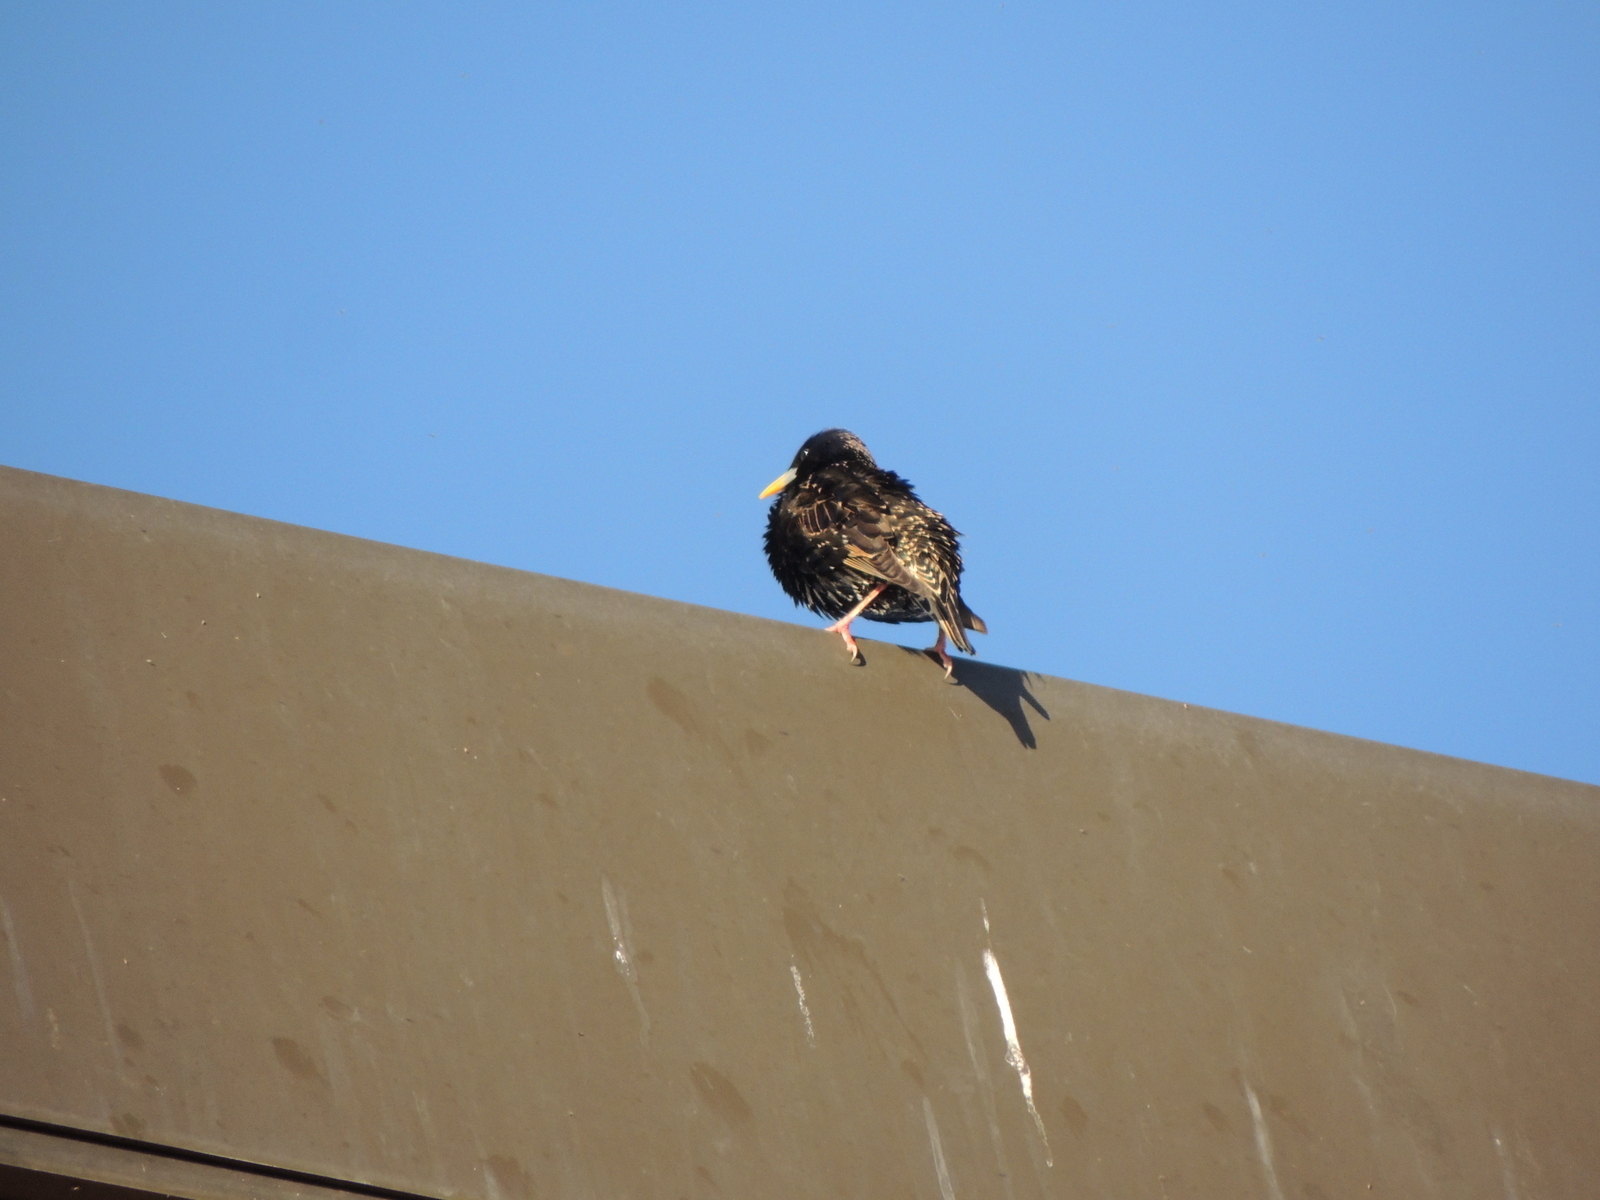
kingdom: Animalia
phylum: Chordata
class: Aves
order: Passeriformes
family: Sturnidae
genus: Sturnus
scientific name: Sturnus vulgaris
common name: Common starling
